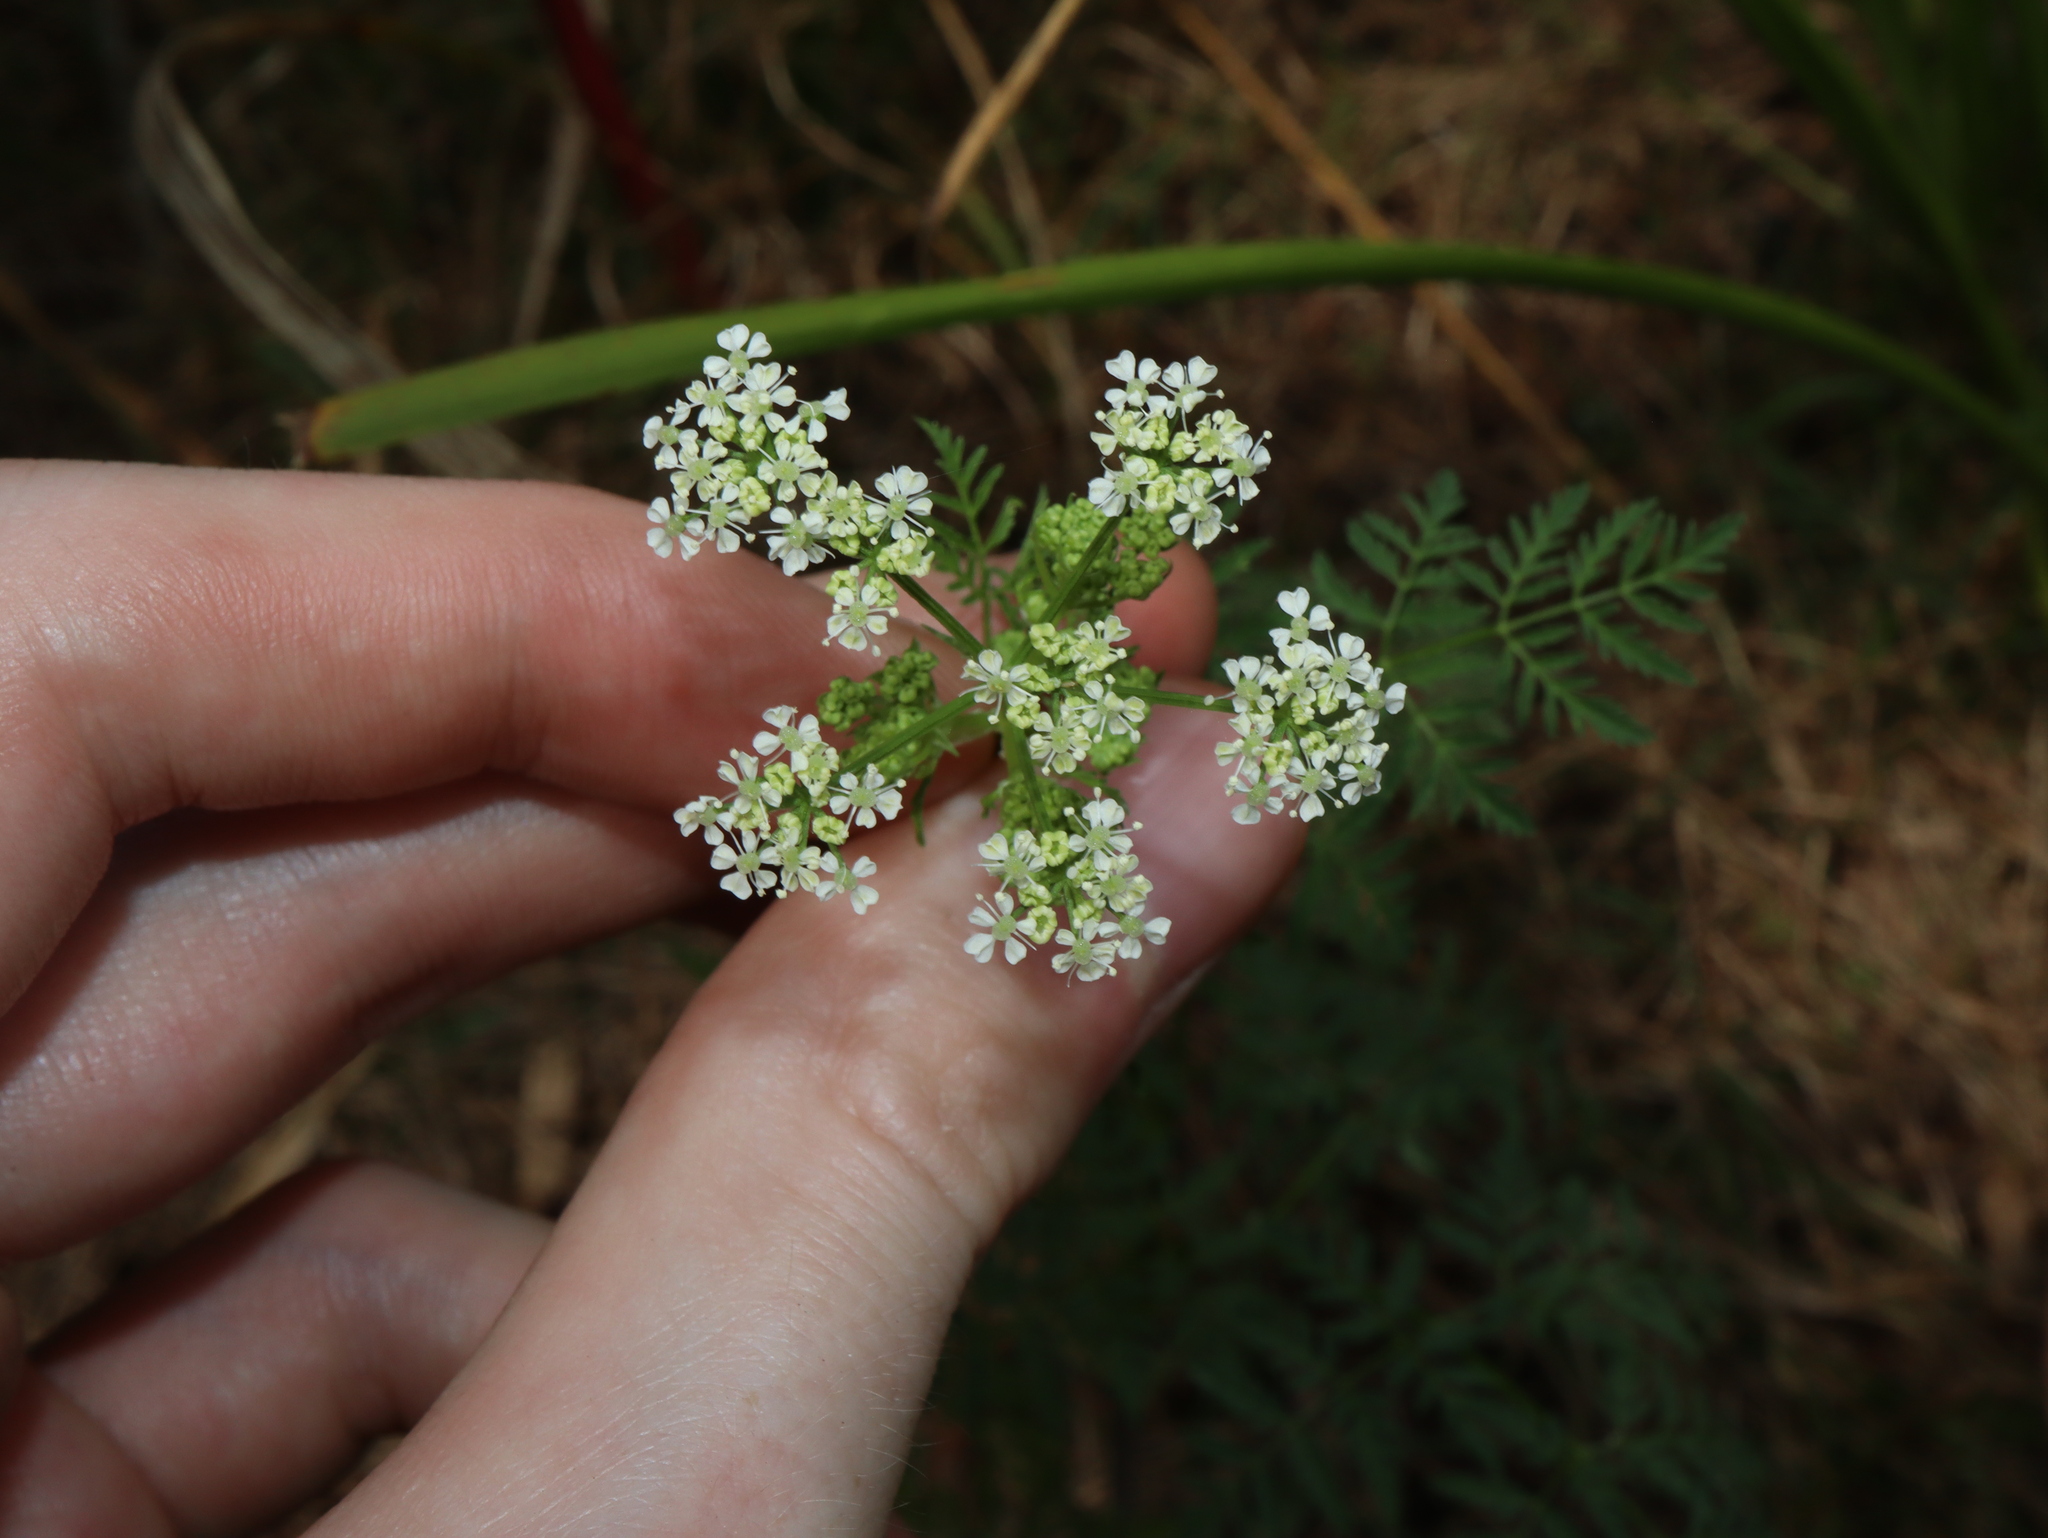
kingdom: Plantae
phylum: Tracheophyta
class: Magnoliopsida
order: Apiales
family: Apiaceae
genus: Conium
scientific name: Conium maculatum
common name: Hemlock
